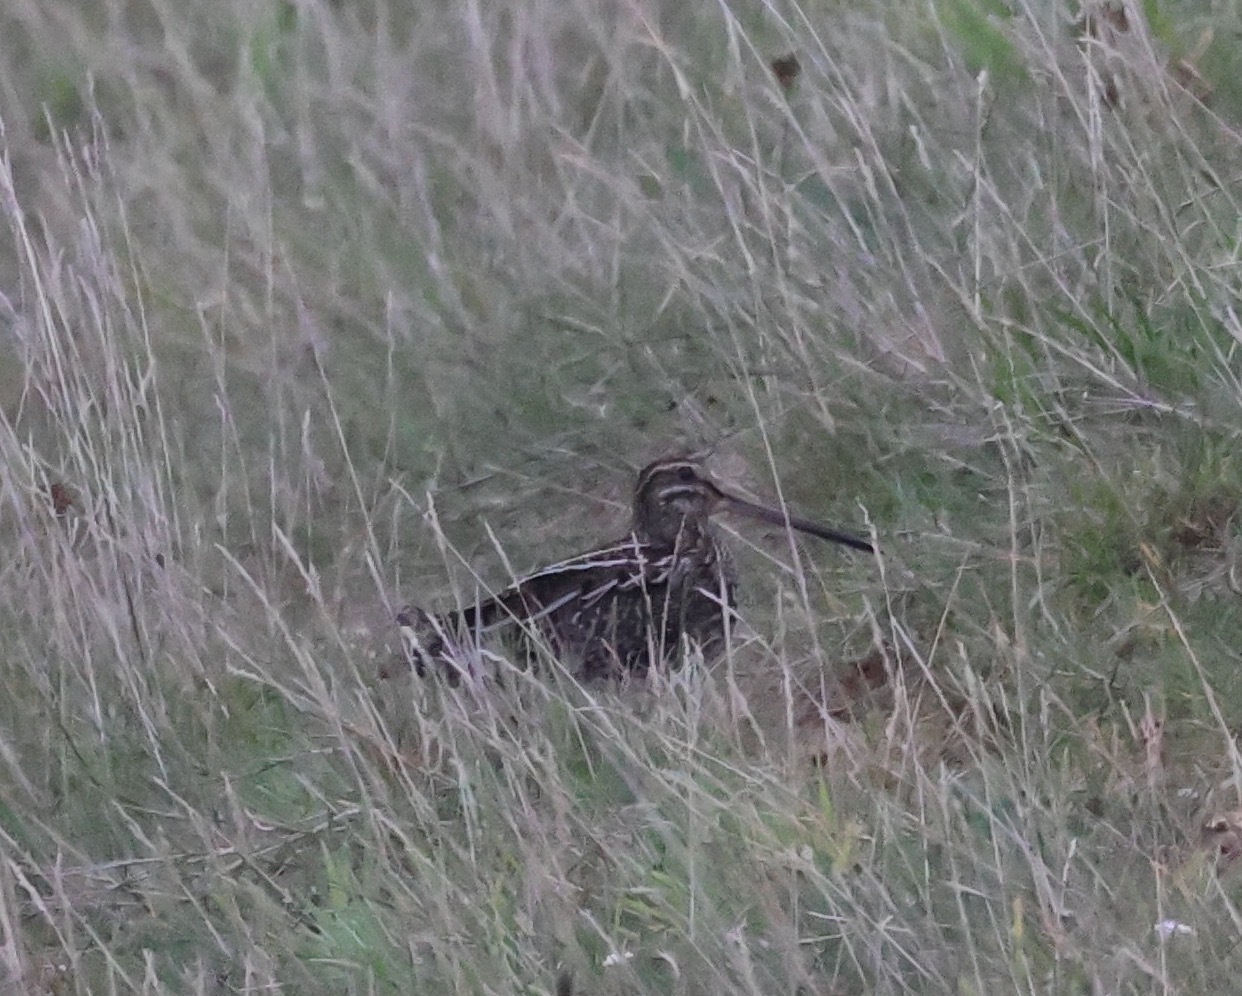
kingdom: Animalia
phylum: Chordata
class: Aves
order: Charadriiformes
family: Scolopacidae
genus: Gallinago
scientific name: Gallinago gallinago
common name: Common snipe
